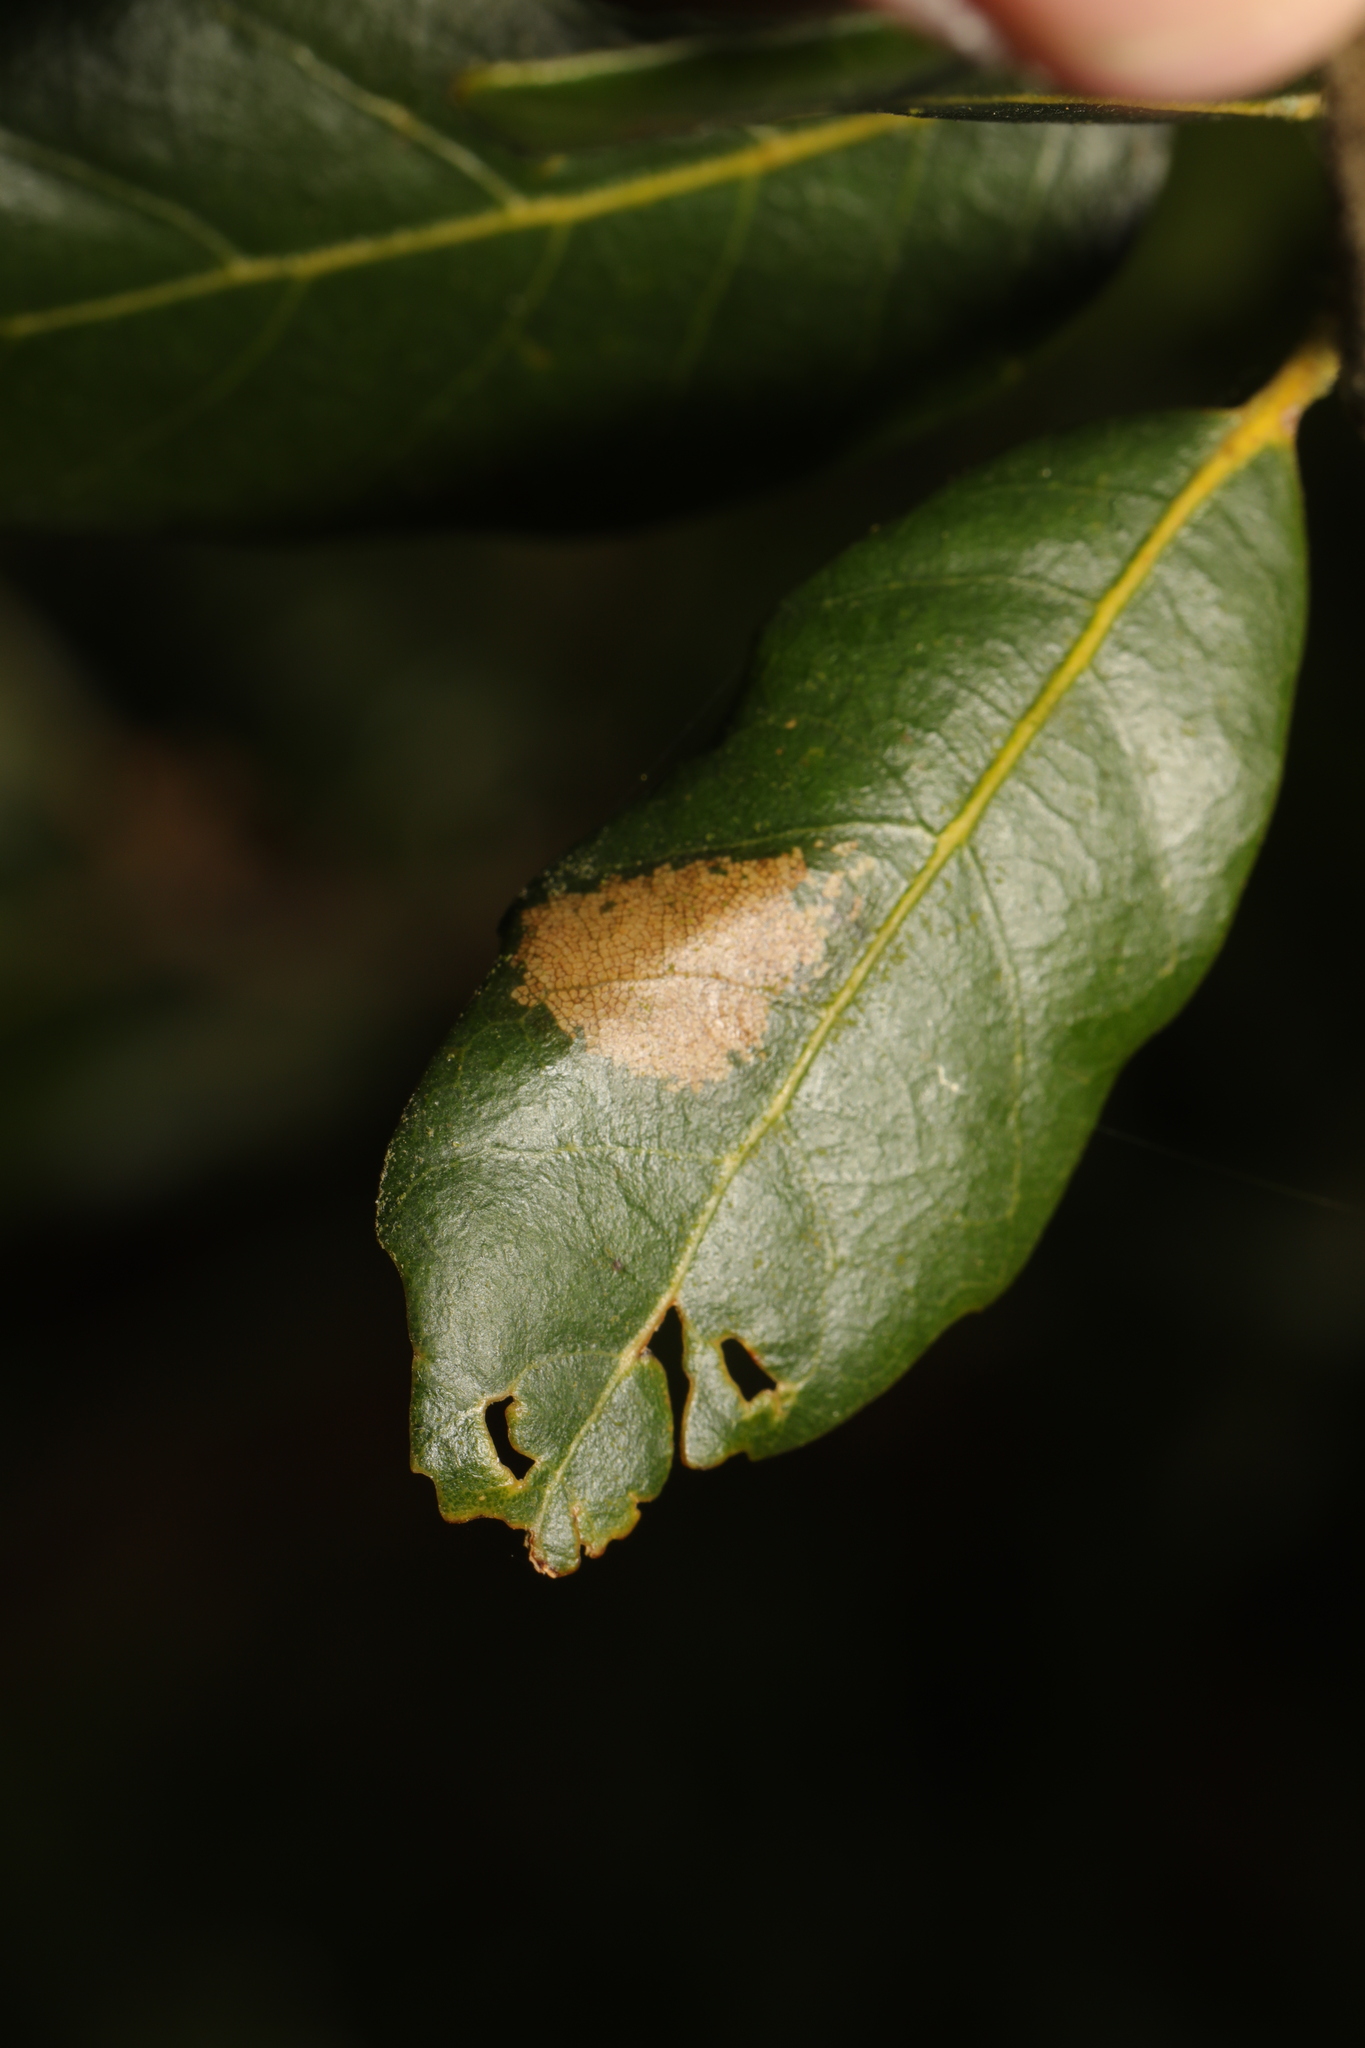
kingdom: Animalia
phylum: Arthropoda
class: Insecta
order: Lepidoptera
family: Gracillariidae
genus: Phyllonorycter
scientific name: Phyllonorycter messaniella
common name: Garden midget
